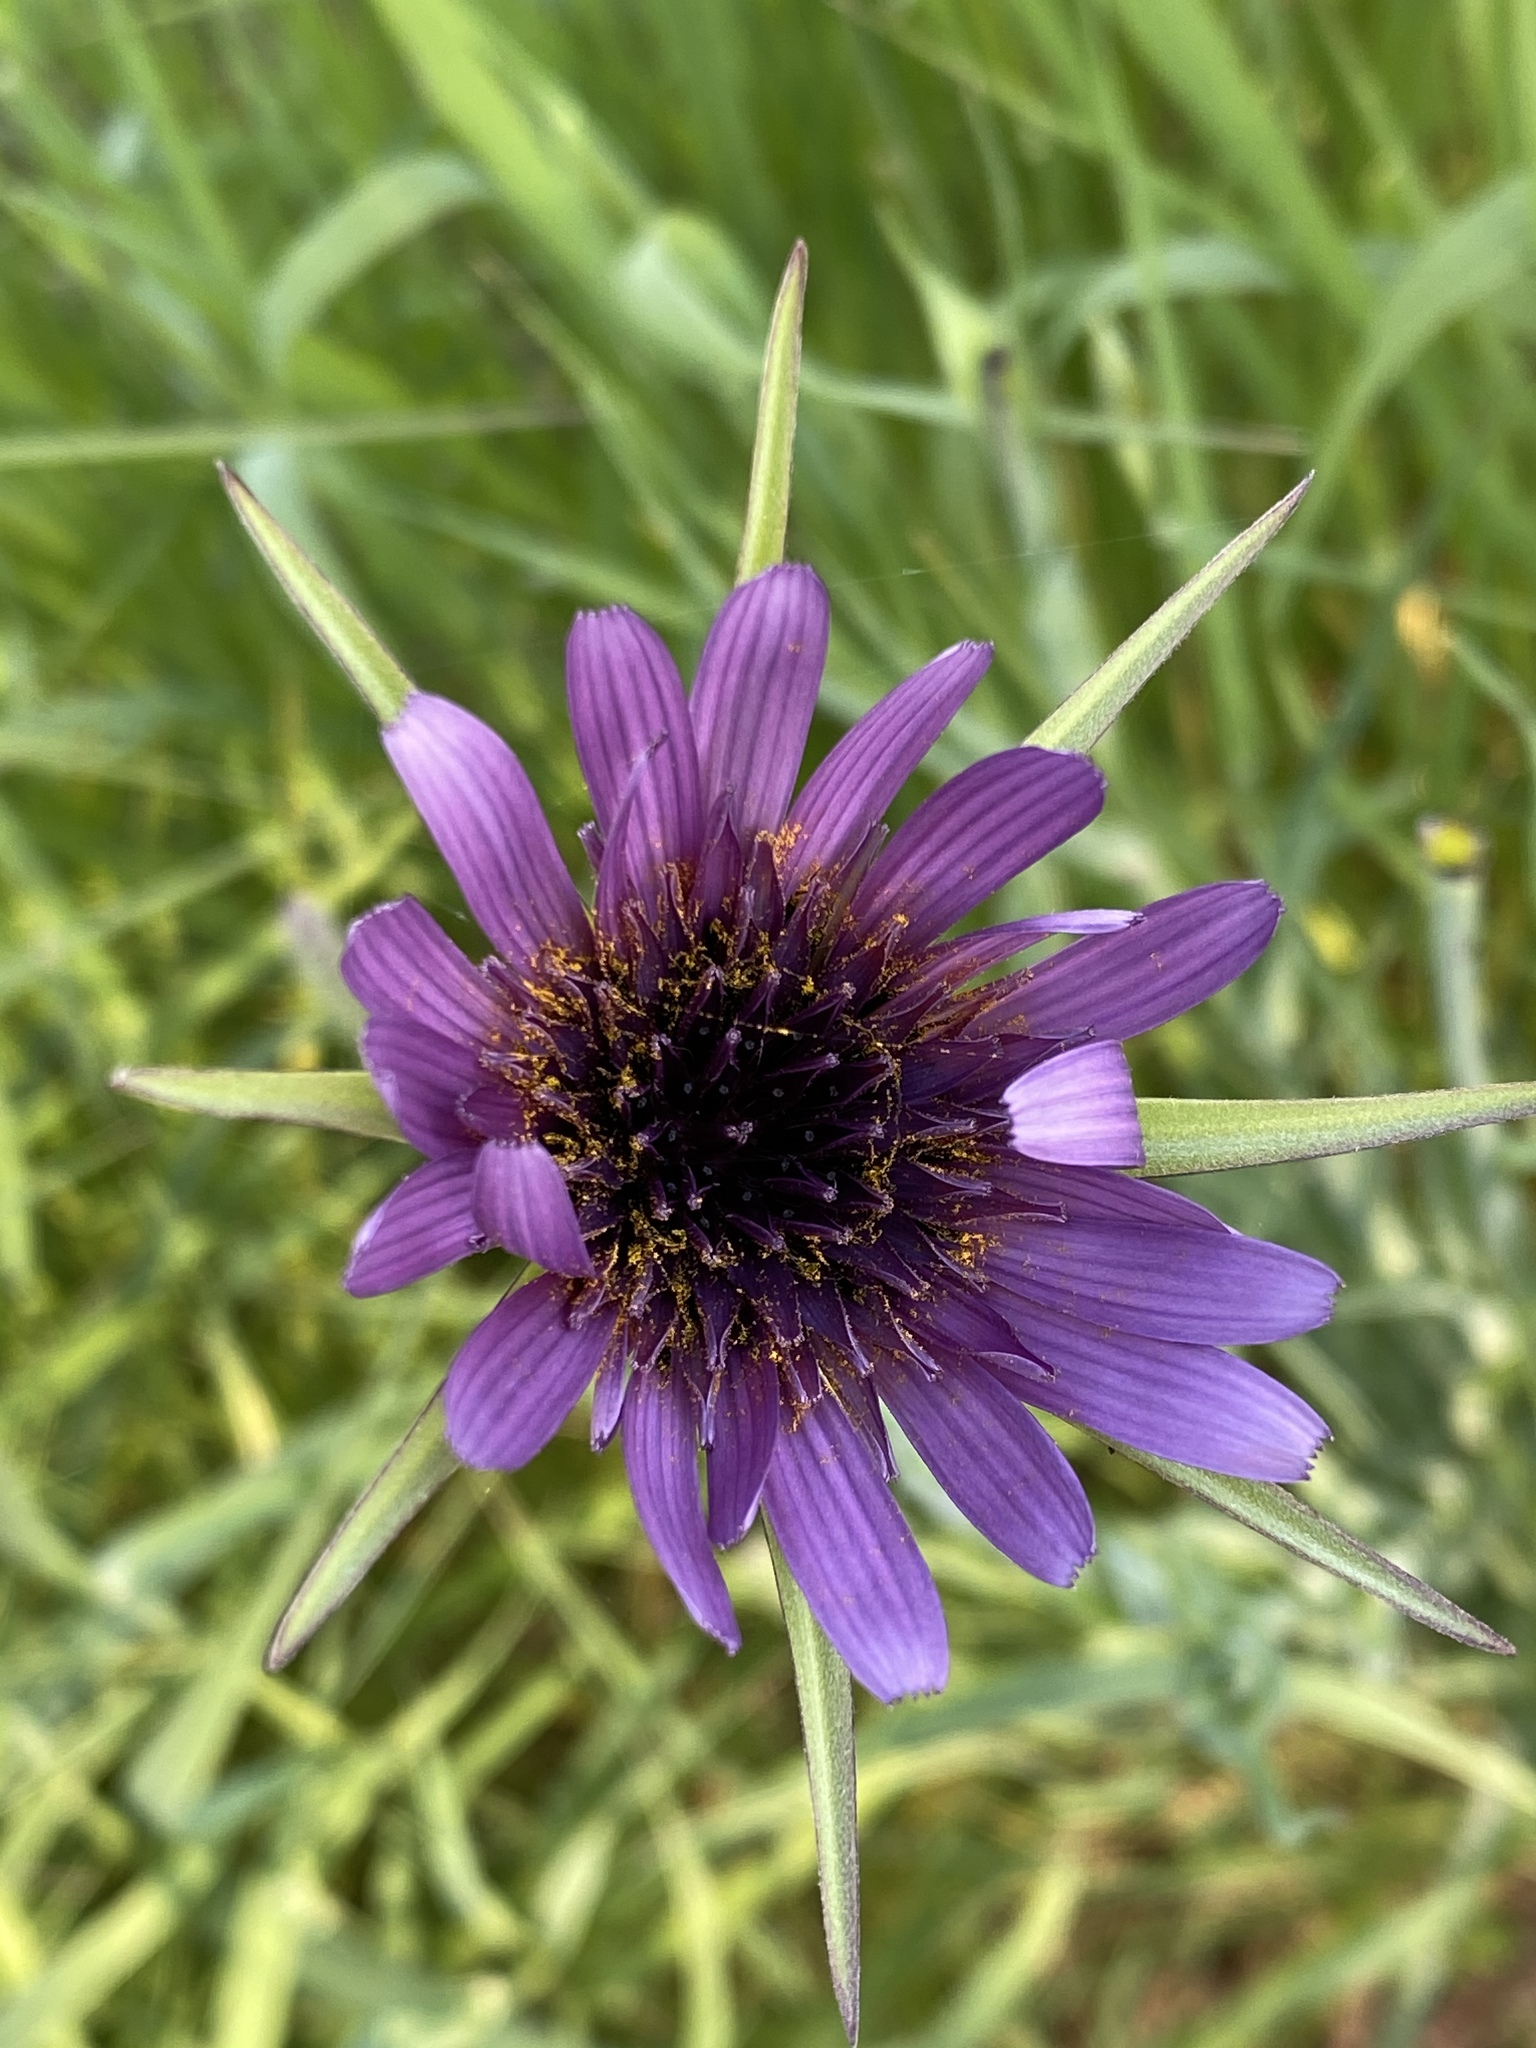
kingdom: Plantae
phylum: Tracheophyta
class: Magnoliopsida
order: Asterales
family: Asteraceae
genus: Tragopogon
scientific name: Tragopogon porrifolius
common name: Salsify
